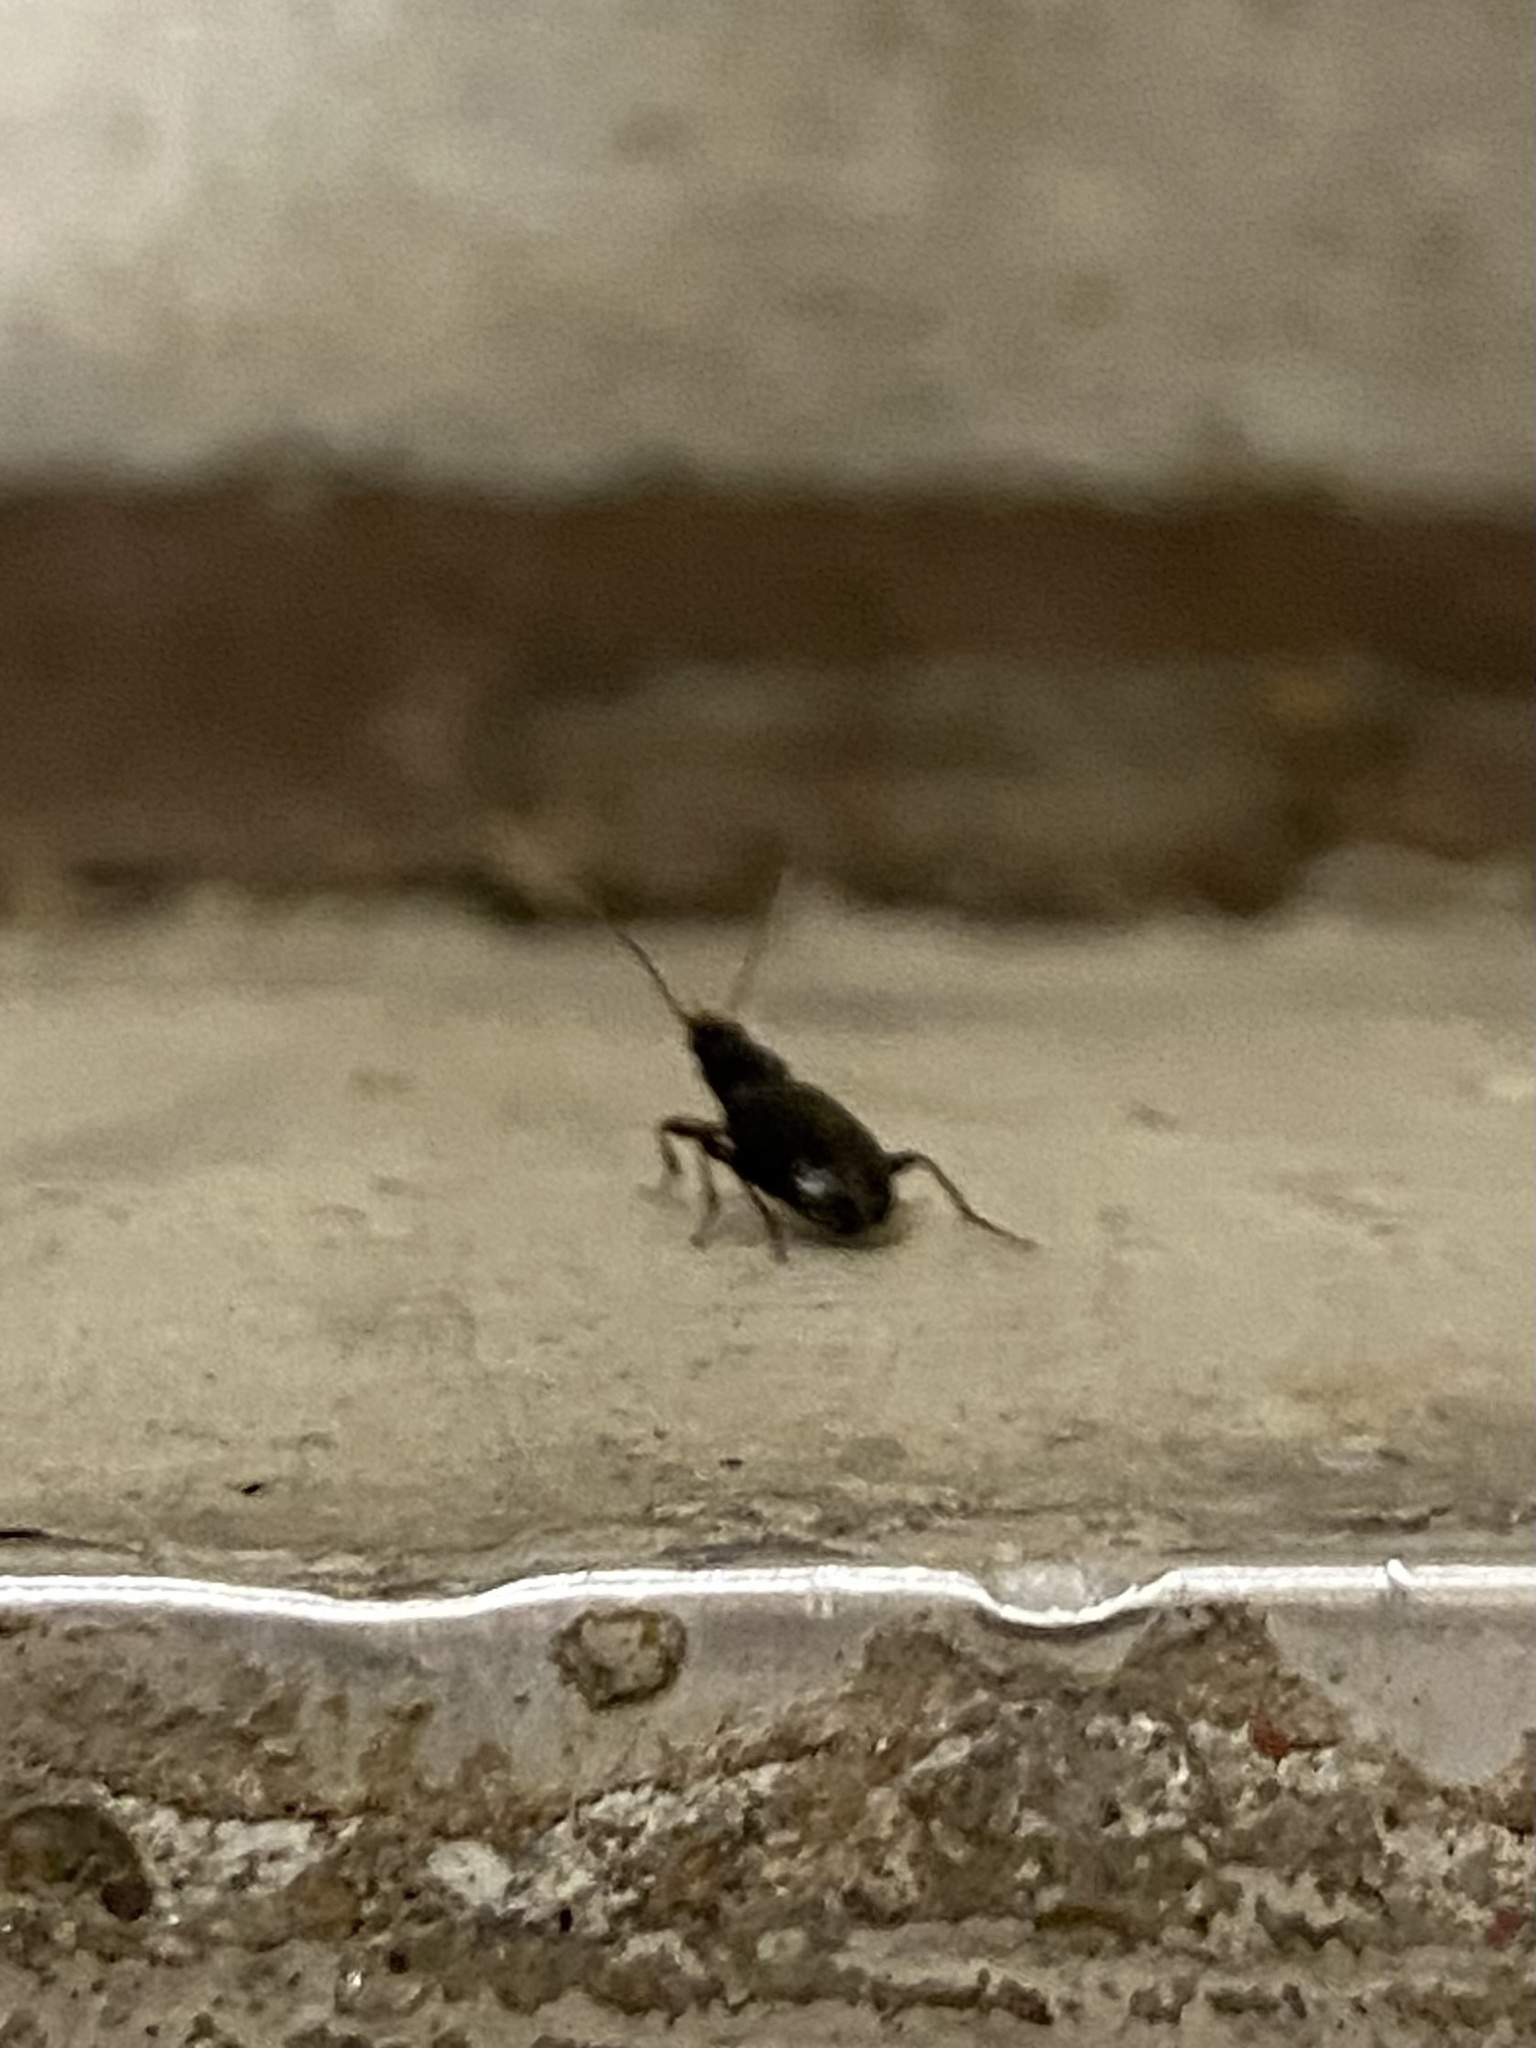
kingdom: Animalia
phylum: Arthropoda
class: Insecta
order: Coleoptera
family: Carabidae
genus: Agonum
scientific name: Agonum punctiforme
